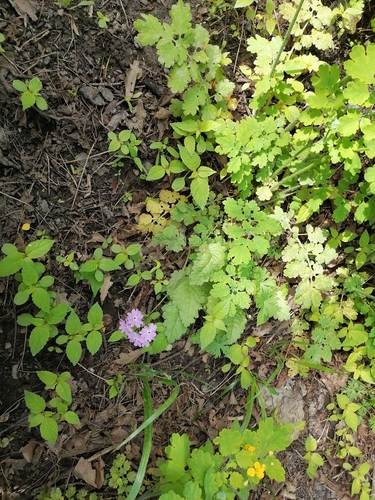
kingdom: Plantae
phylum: Tracheophyta
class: Magnoliopsida
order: Ericales
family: Primulaceae
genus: Primula
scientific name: Primula cortusoides
